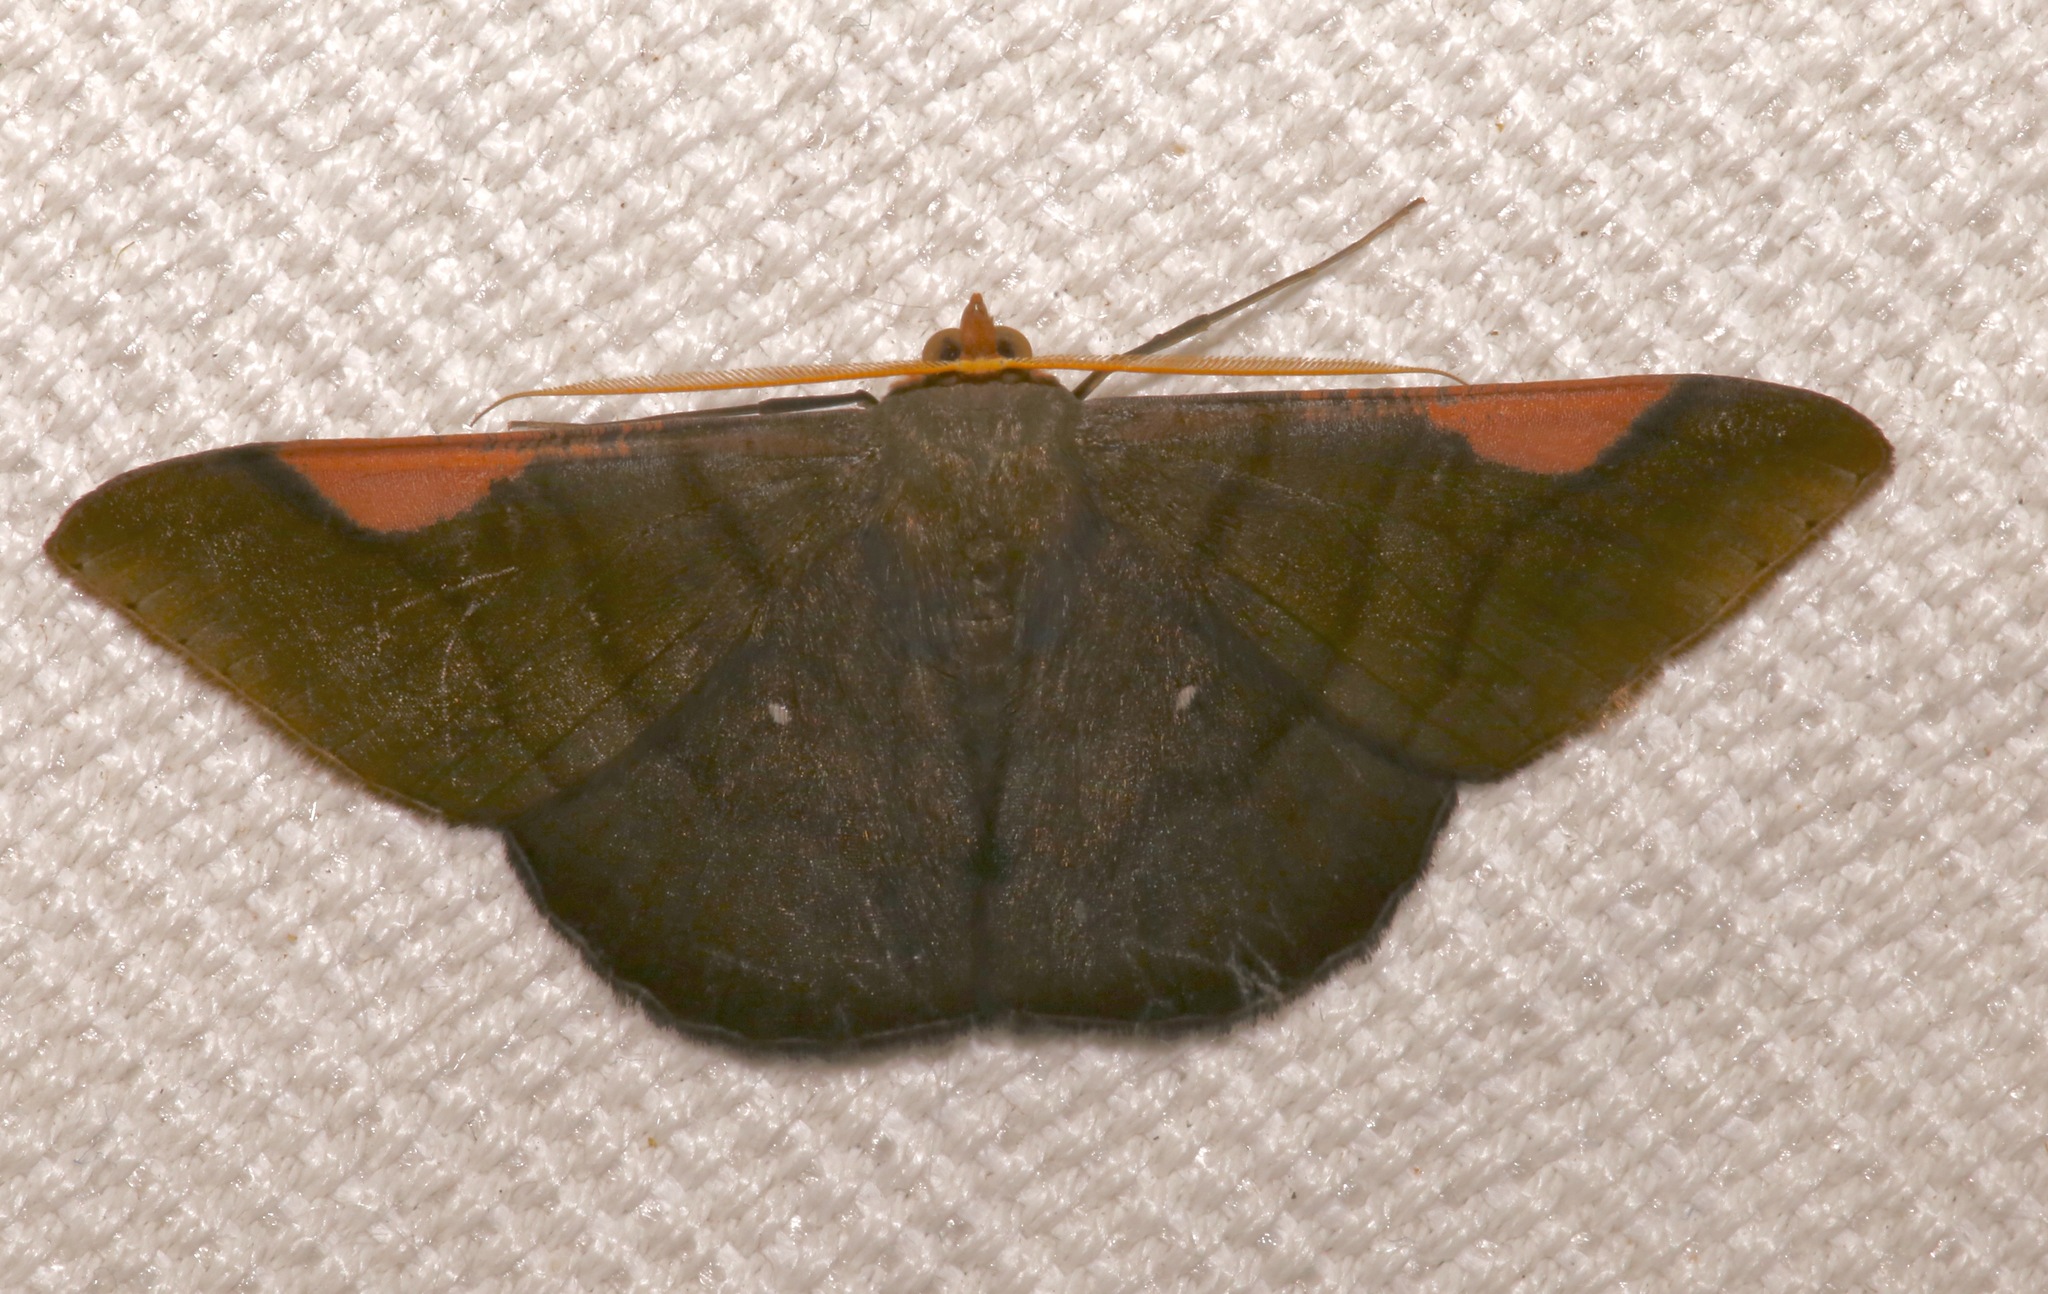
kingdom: Animalia
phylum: Arthropoda
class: Insecta
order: Lepidoptera
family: Geometridae
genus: Sphacelodes
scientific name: Sphacelodes vulneraria
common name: Looper moth
